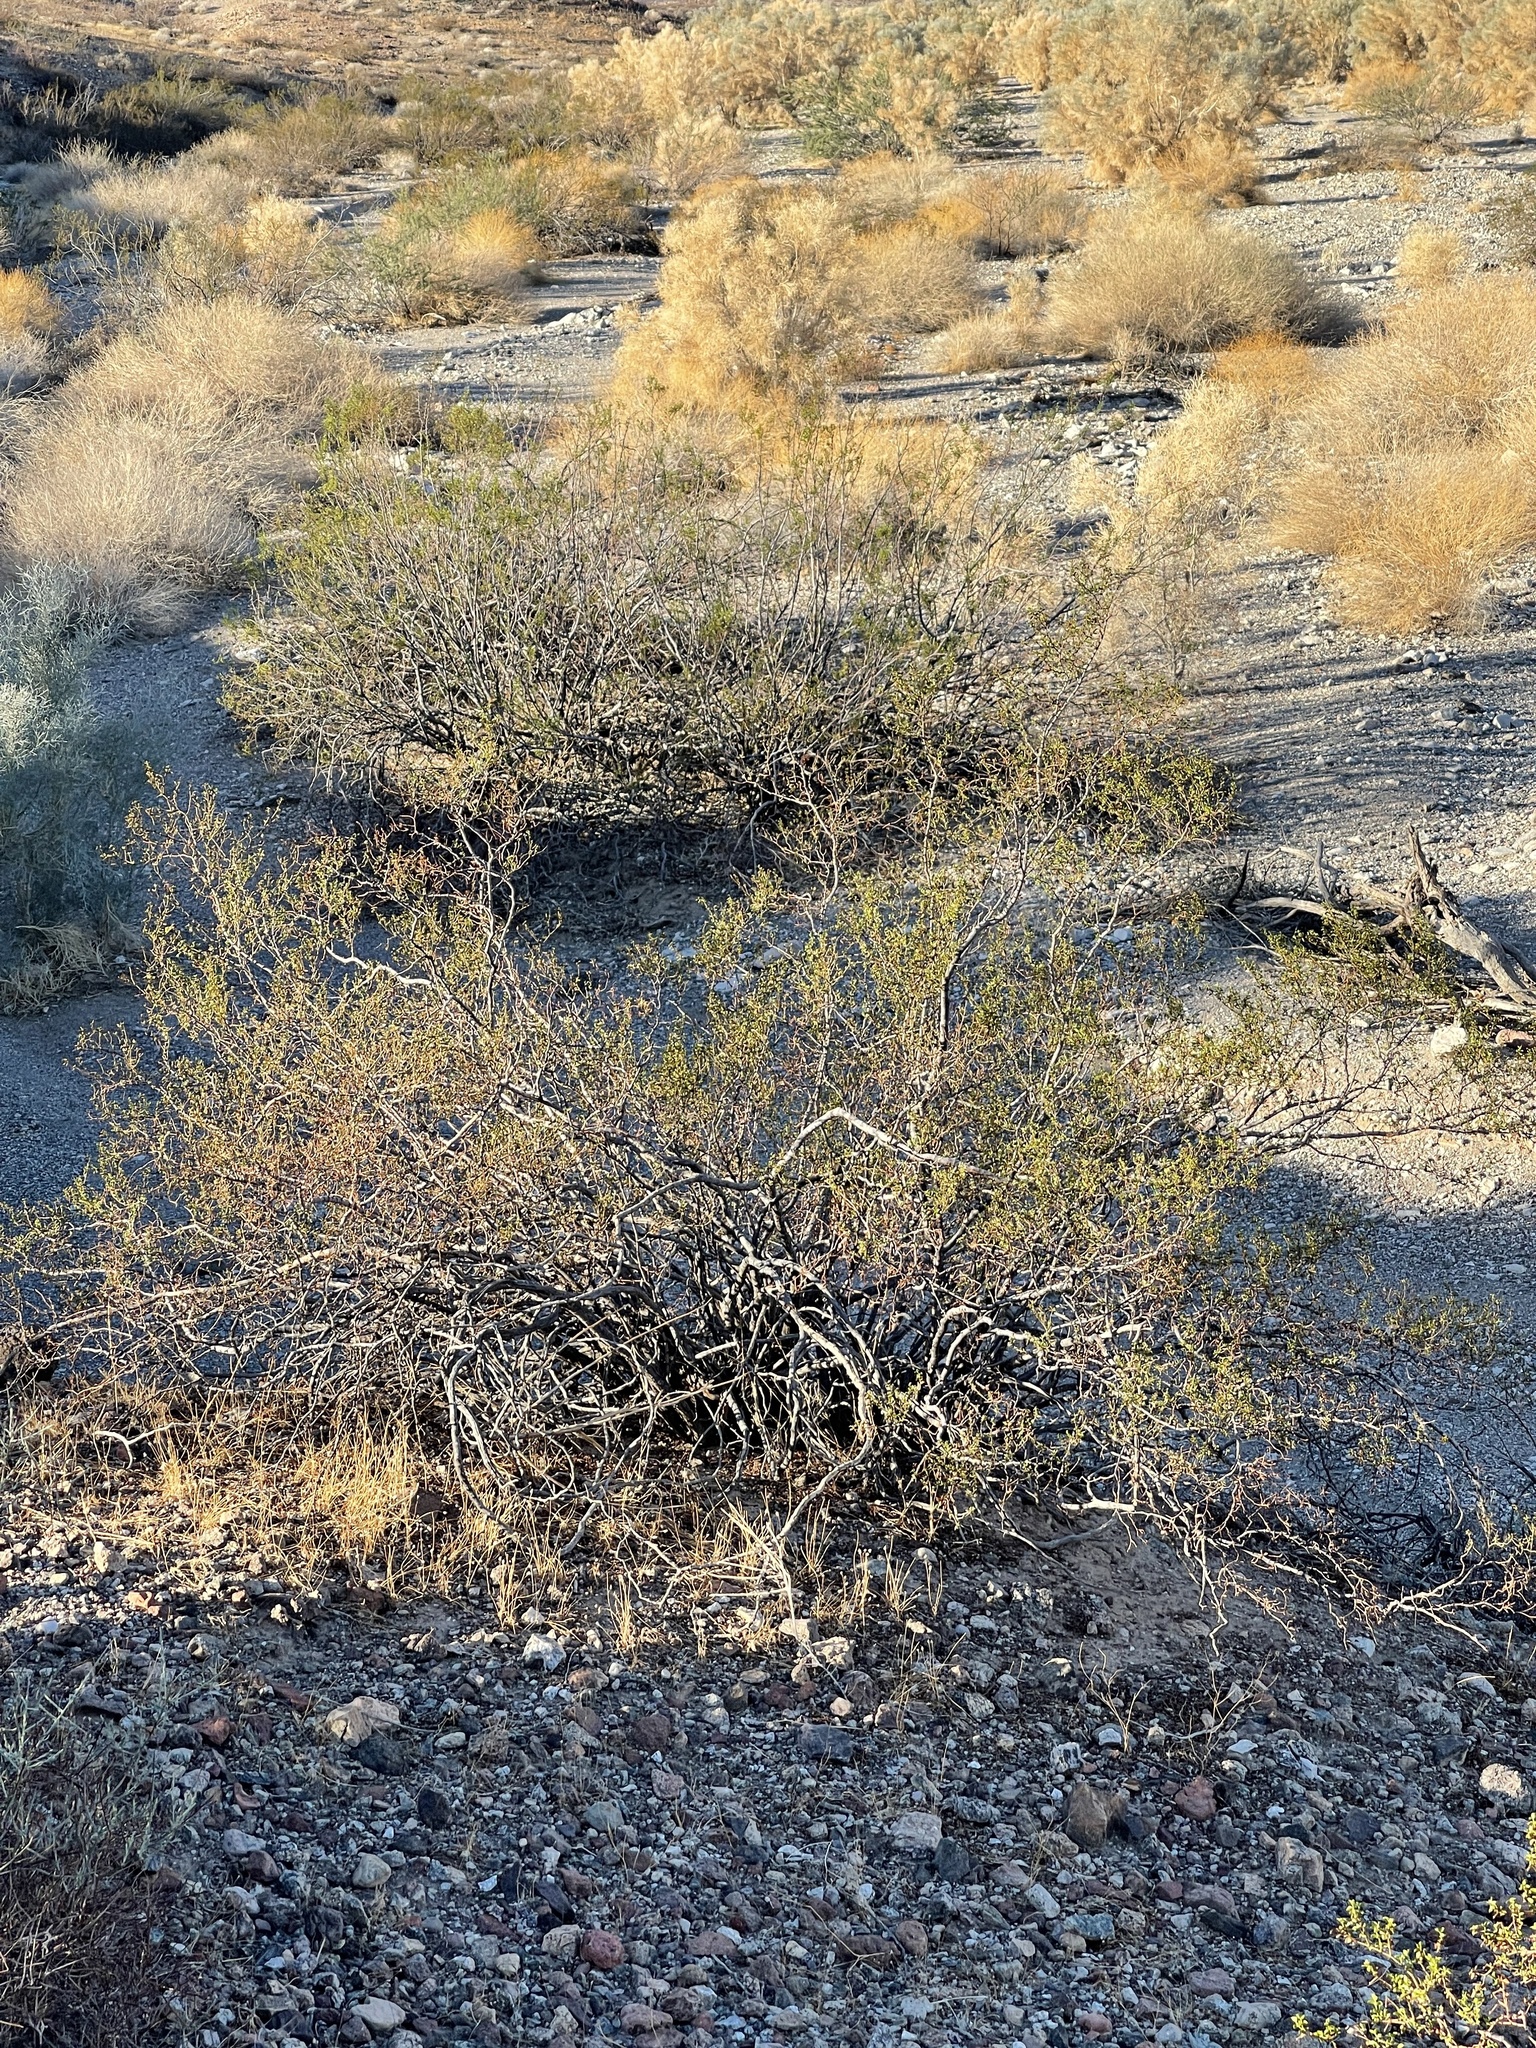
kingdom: Plantae
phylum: Tracheophyta
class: Magnoliopsida
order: Zygophyllales
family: Zygophyllaceae
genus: Larrea
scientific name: Larrea tridentata
